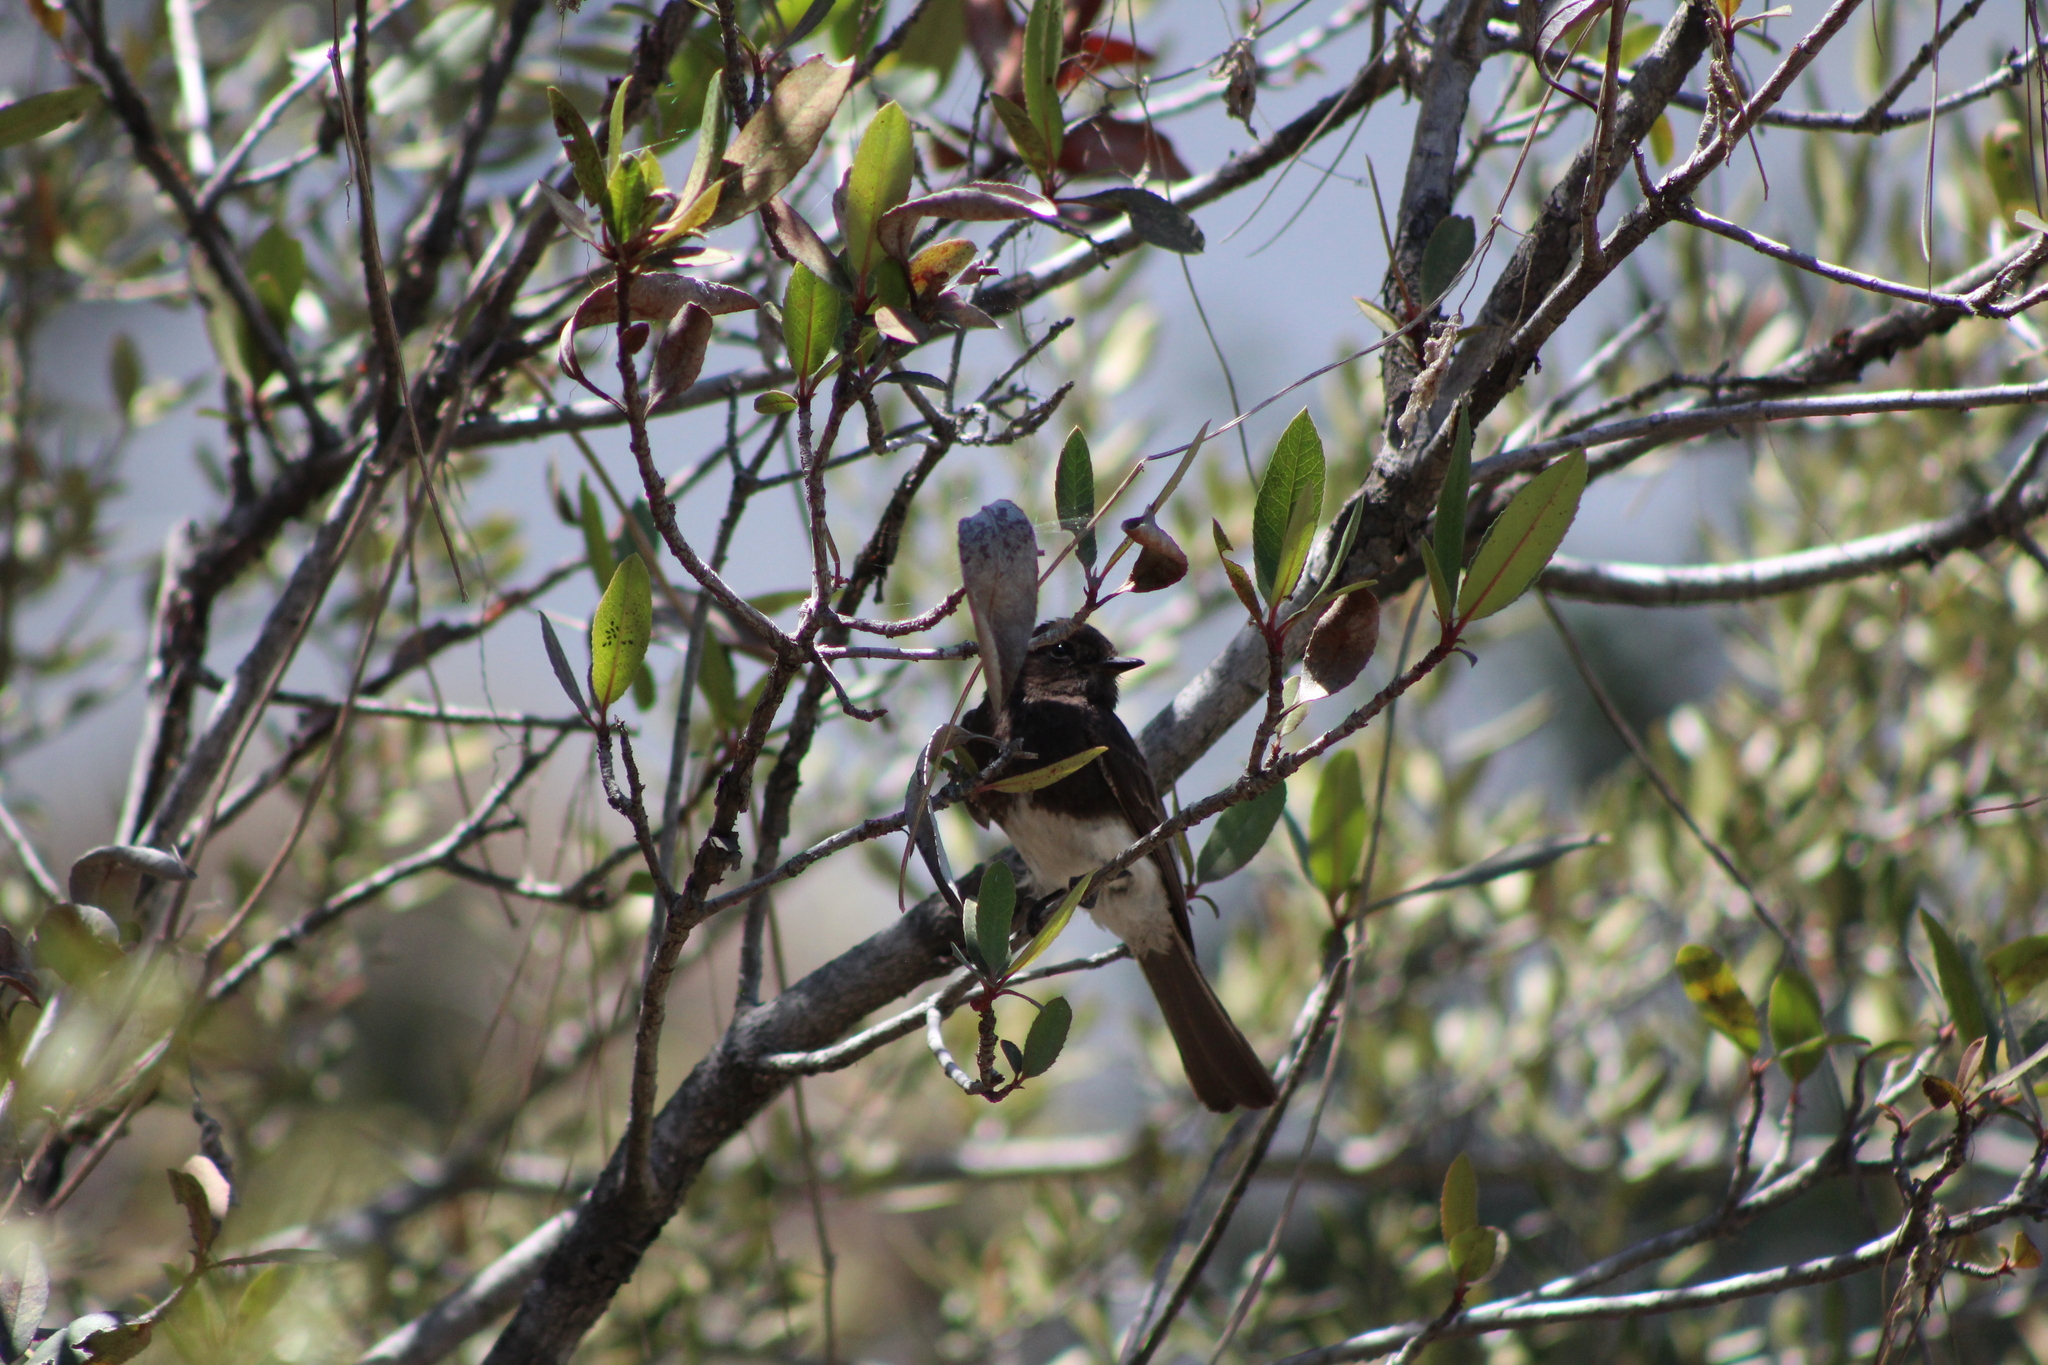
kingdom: Animalia
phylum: Chordata
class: Aves
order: Passeriformes
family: Tyrannidae
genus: Sayornis
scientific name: Sayornis nigricans
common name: Black phoebe
